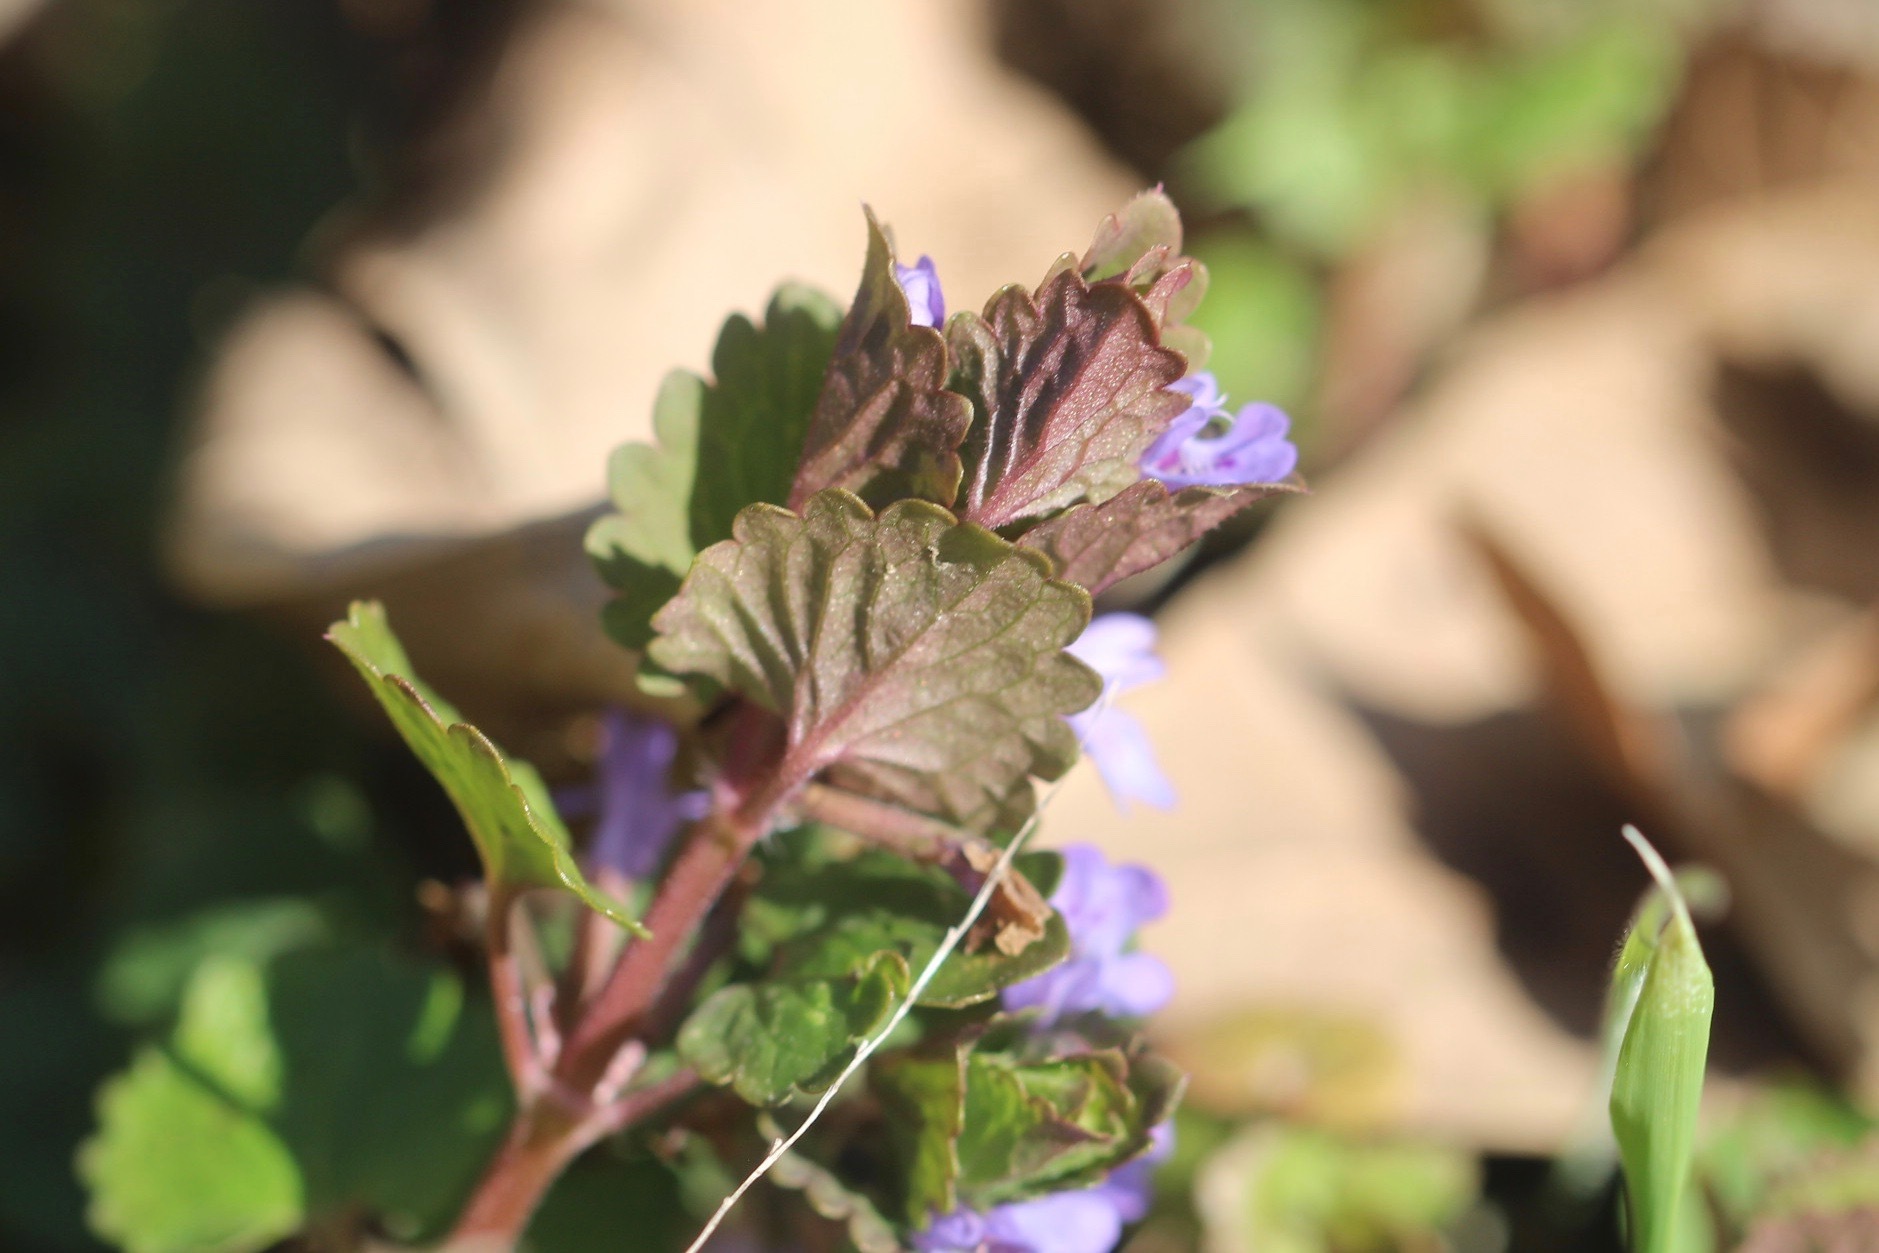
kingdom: Plantae
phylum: Tracheophyta
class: Magnoliopsida
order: Lamiales
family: Lamiaceae
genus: Glechoma
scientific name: Glechoma hederacea
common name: Ground ivy
